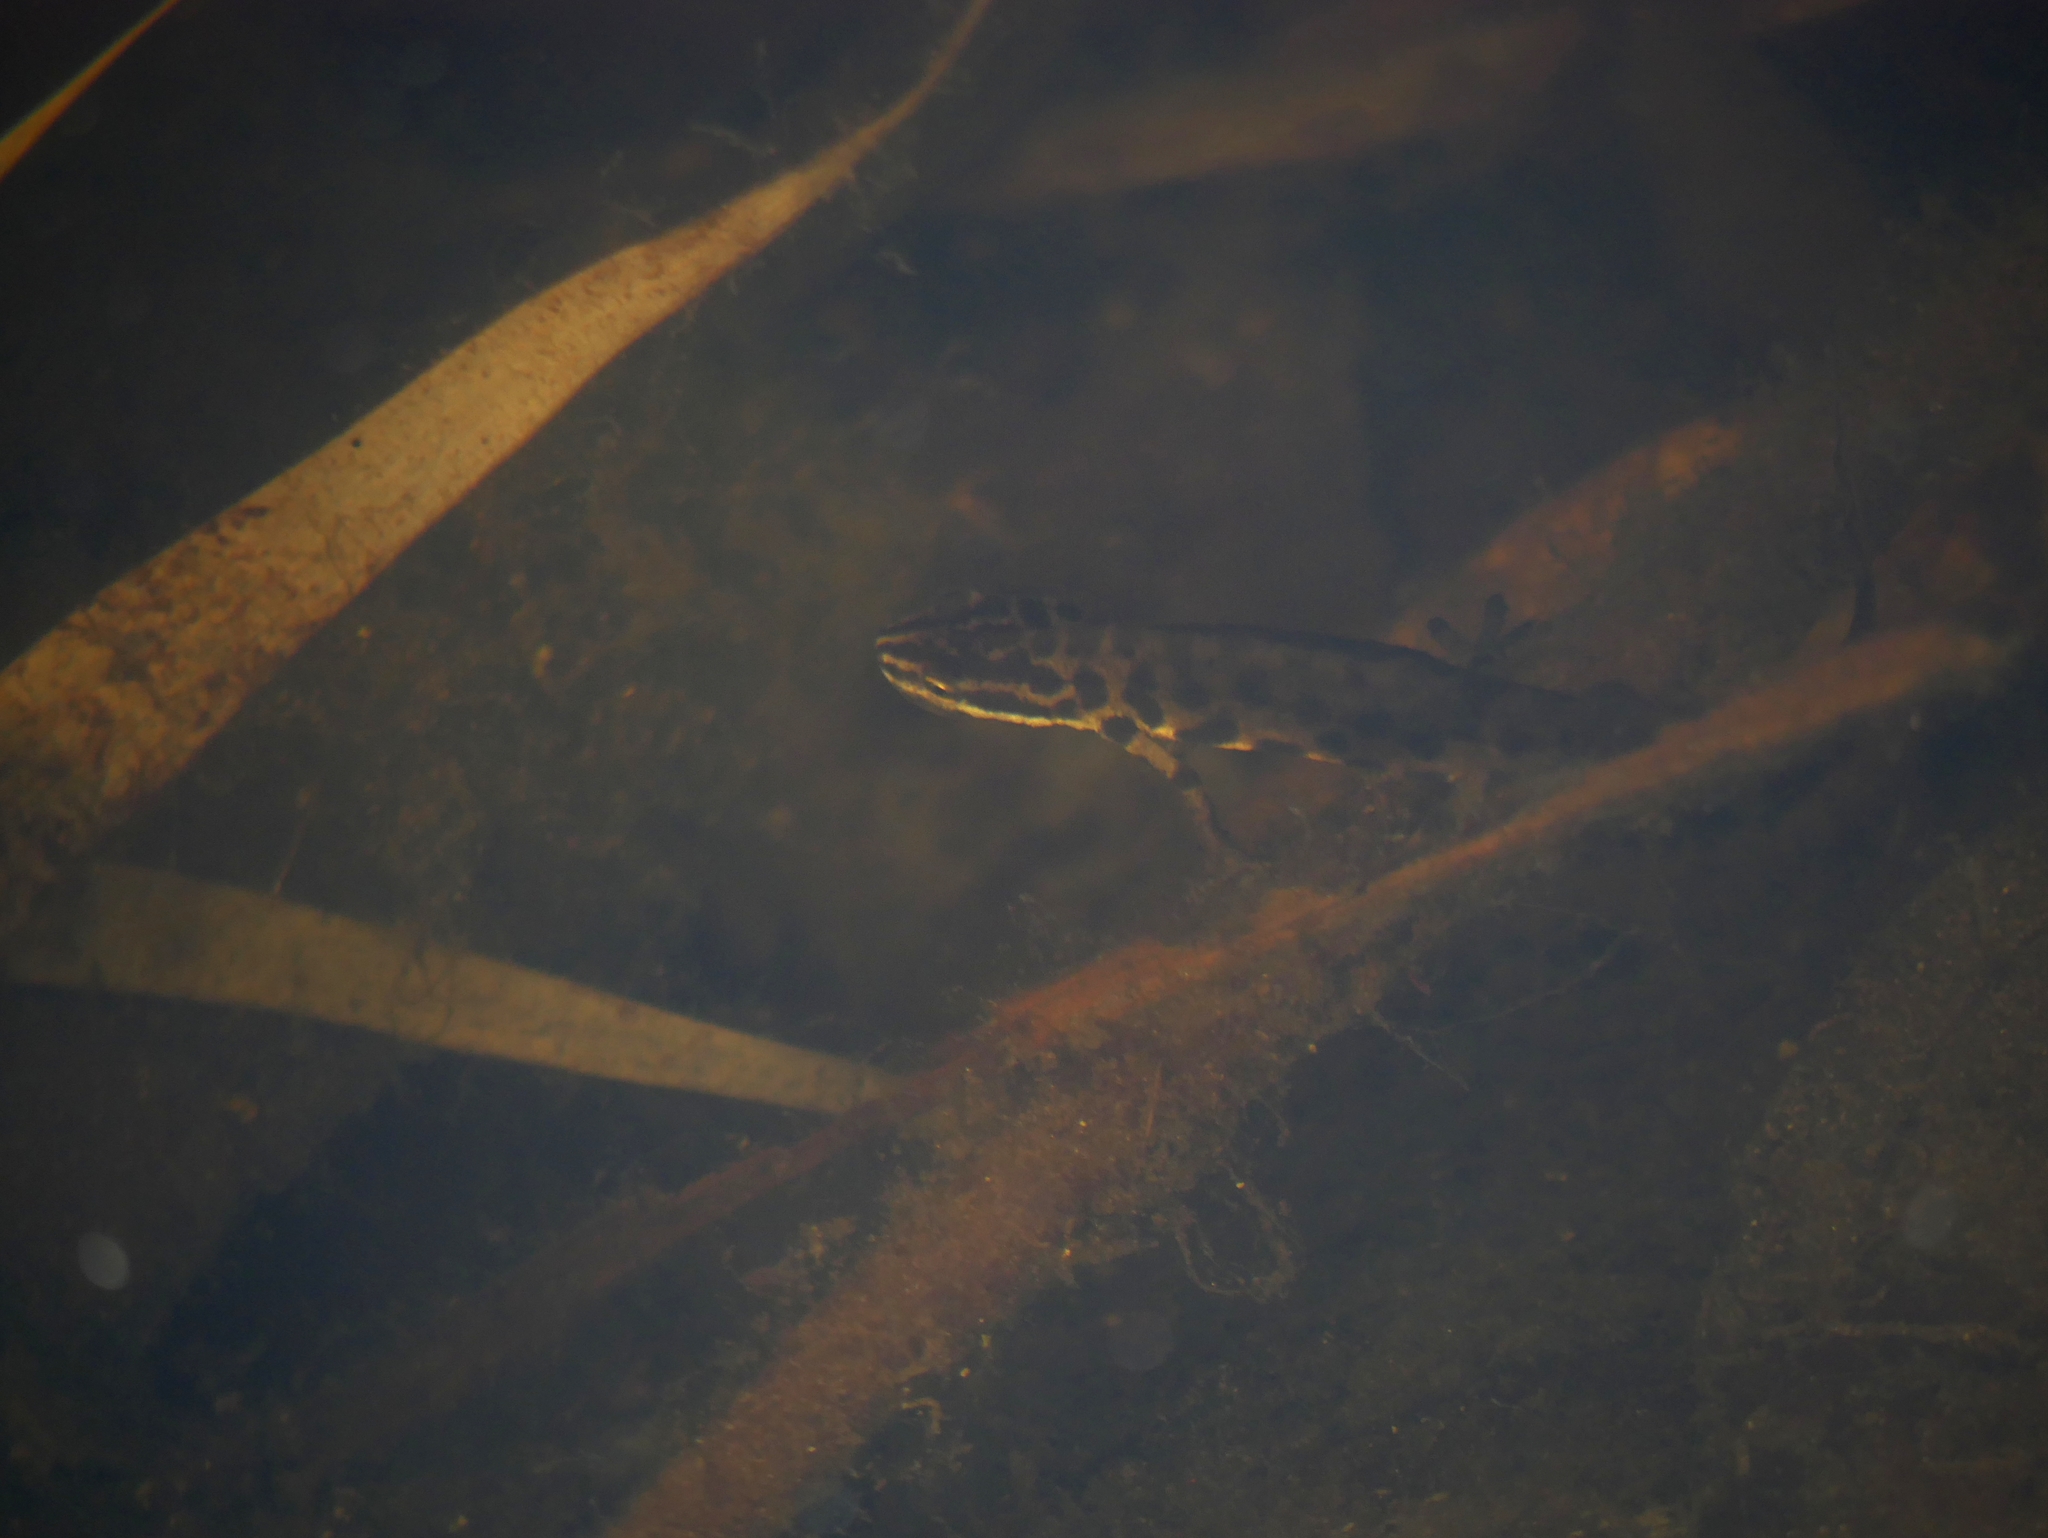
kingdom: Animalia
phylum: Chordata
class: Amphibia
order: Caudata
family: Salamandridae
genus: Lissotriton
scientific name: Lissotriton vulgaris
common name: Smooth newt
